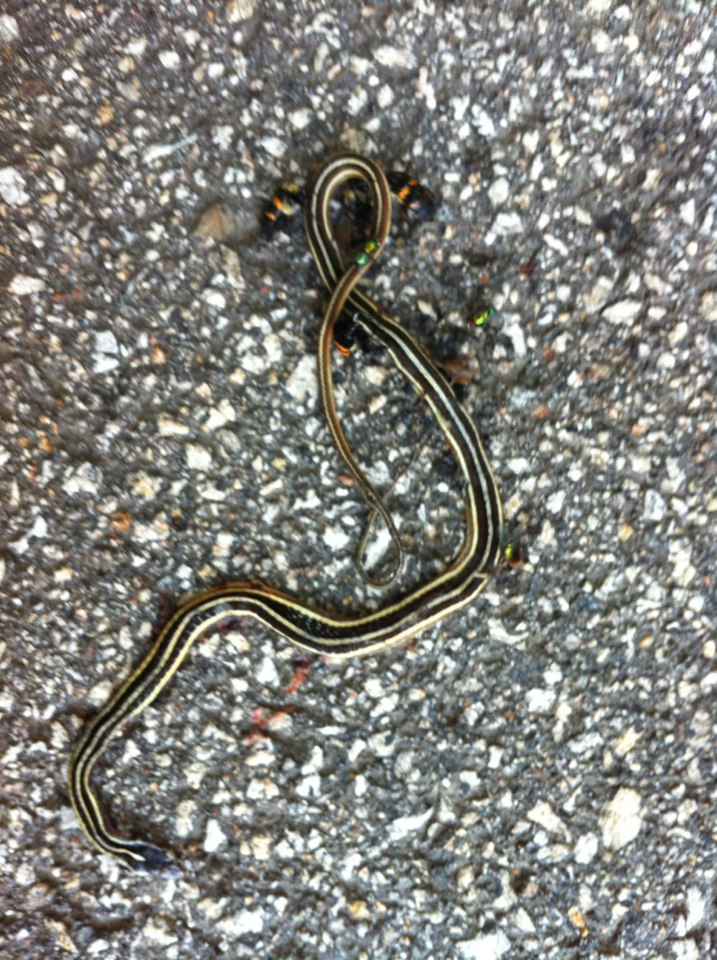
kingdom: Animalia
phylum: Chordata
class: Squamata
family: Colubridae
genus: Thamnophis
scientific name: Thamnophis saurita
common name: Eastern ribbonsnake
